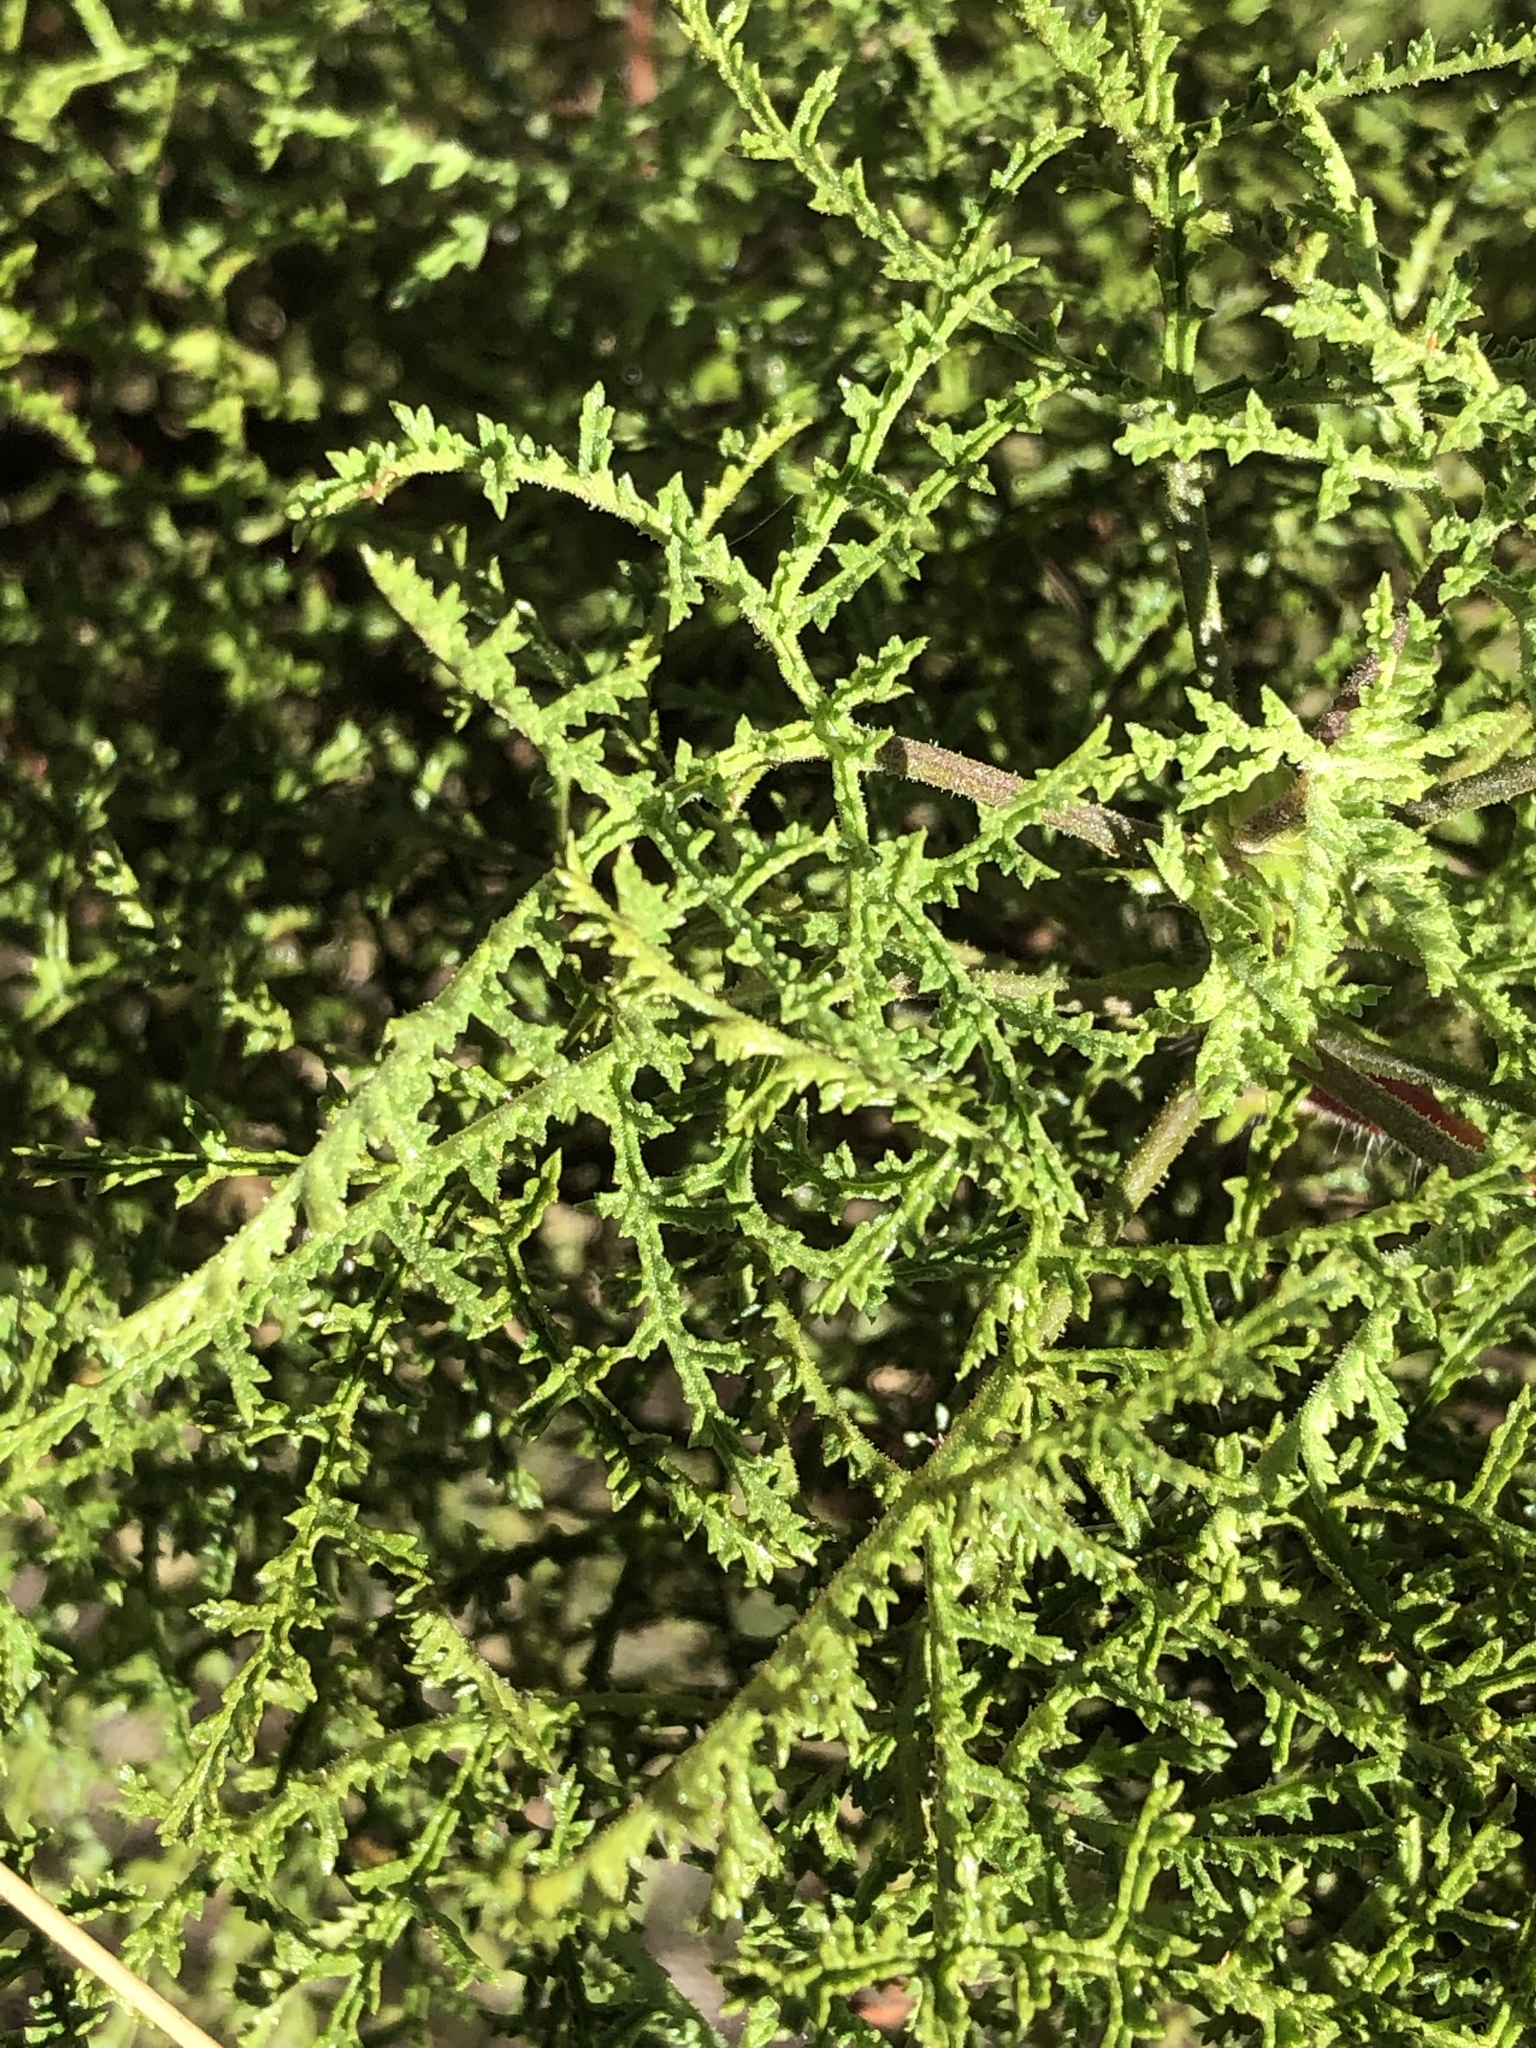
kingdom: Plantae
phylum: Tracheophyta
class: Magnoliopsida
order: Geraniales
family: Geraniaceae
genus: Pelargonium
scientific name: Pelargonium denticulatum
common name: Pine geranium
